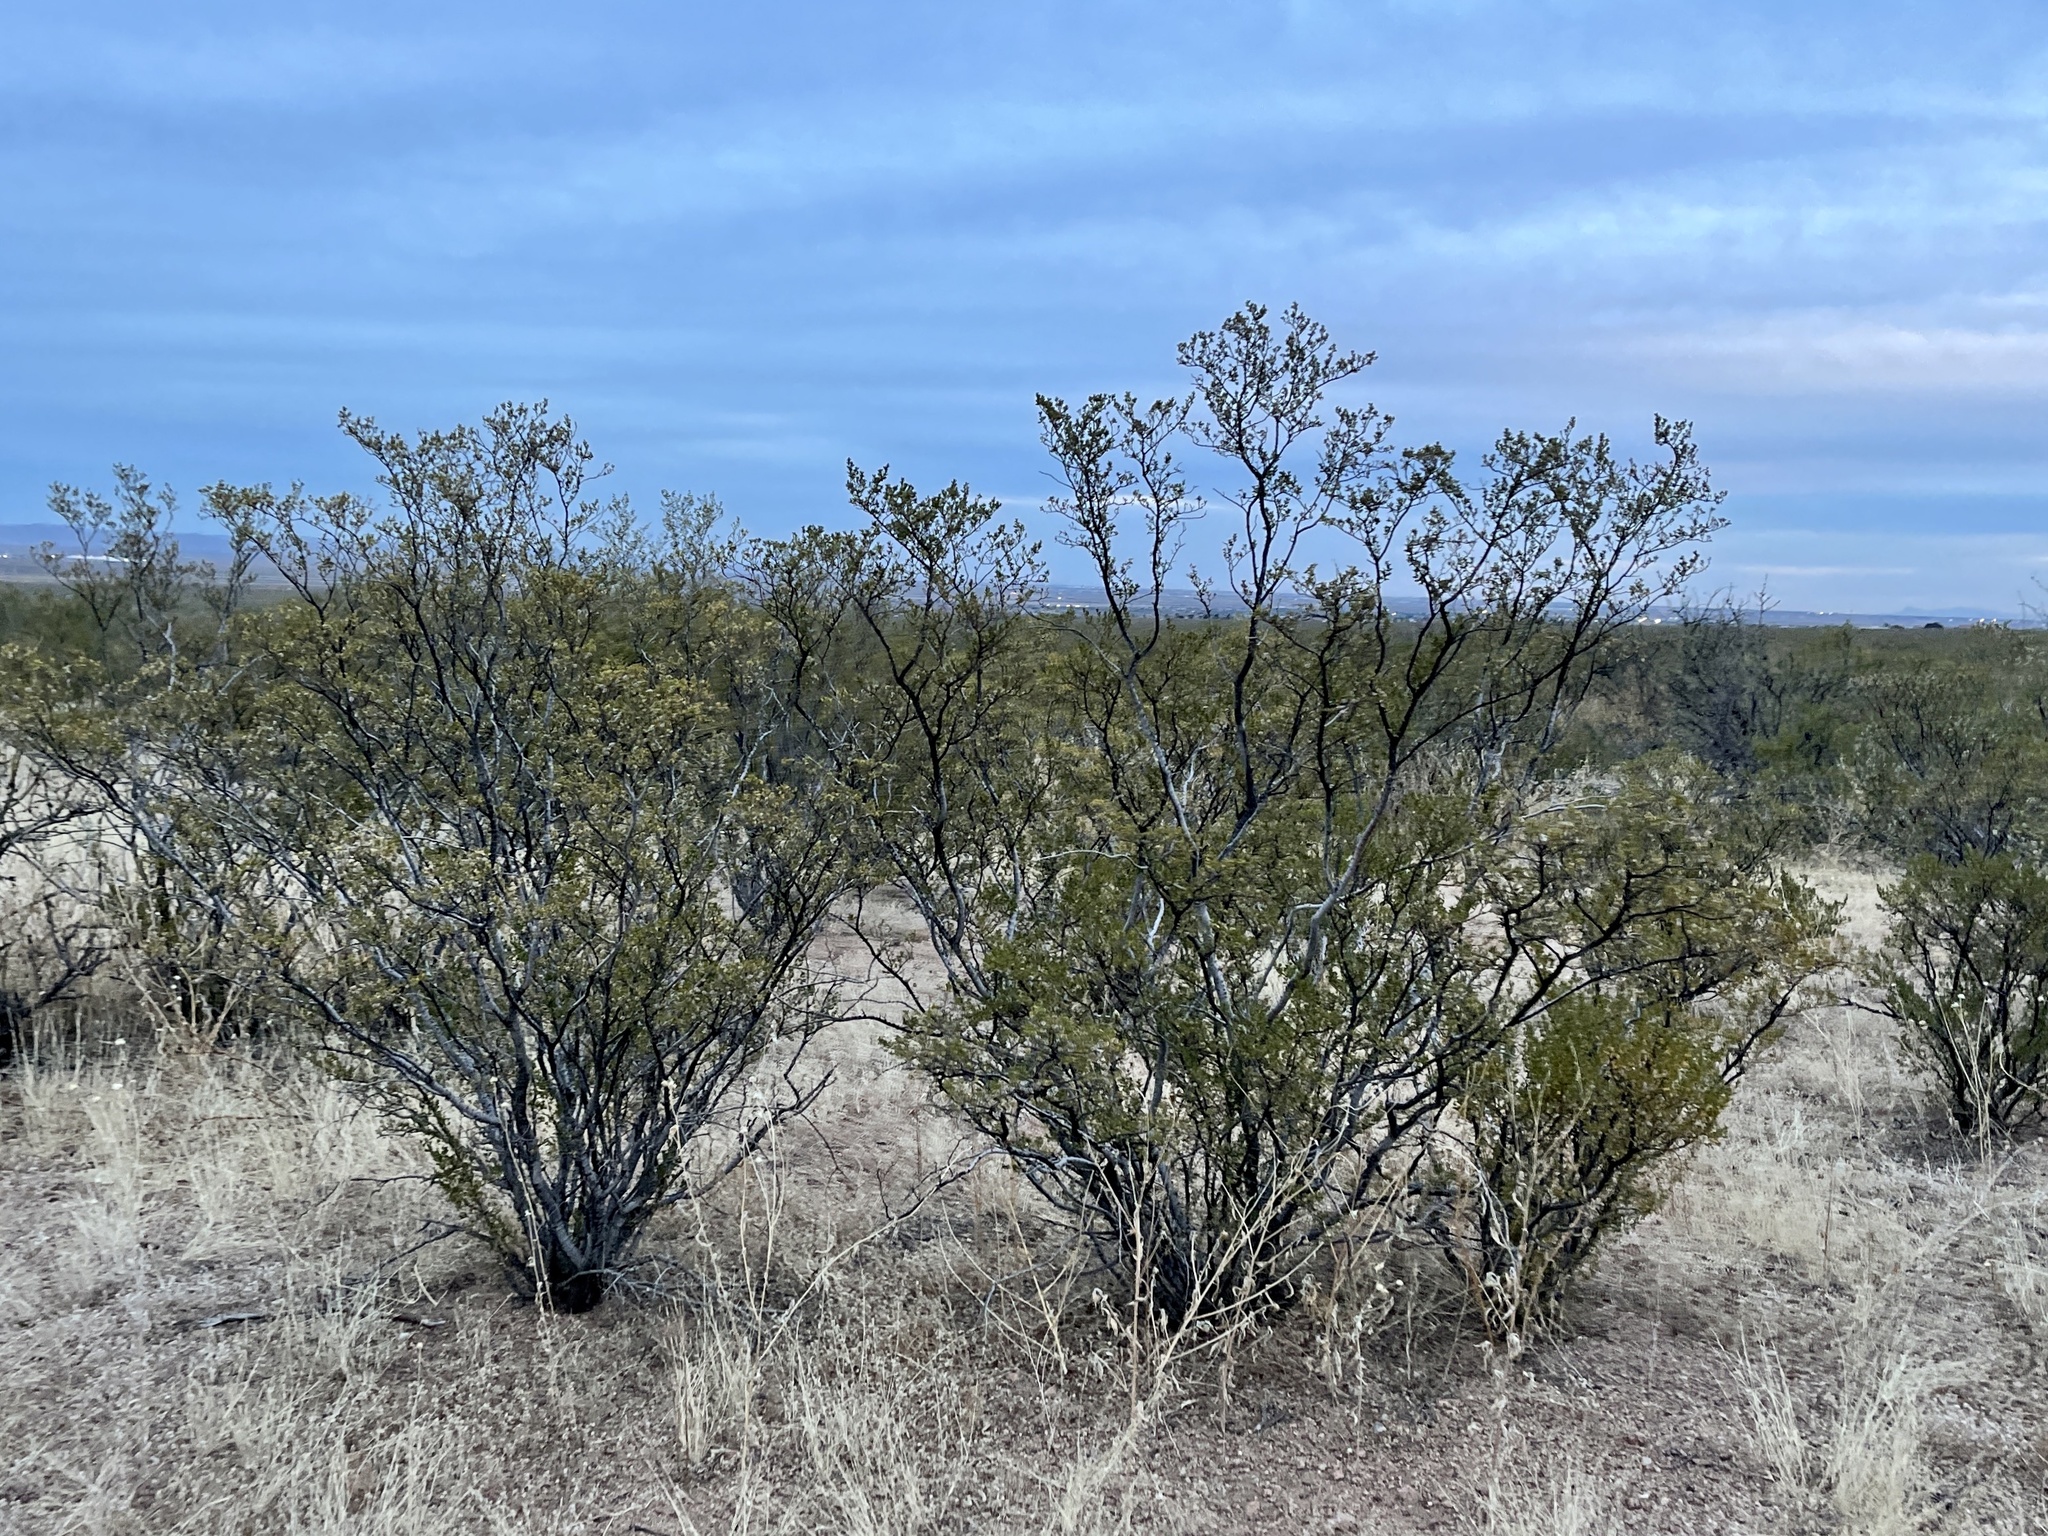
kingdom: Plantae
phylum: Tracheophyta
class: Magnoliopsida
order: Zygophyllales
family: Zygophyllaceae
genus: Larrea
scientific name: Larrea tridentata
